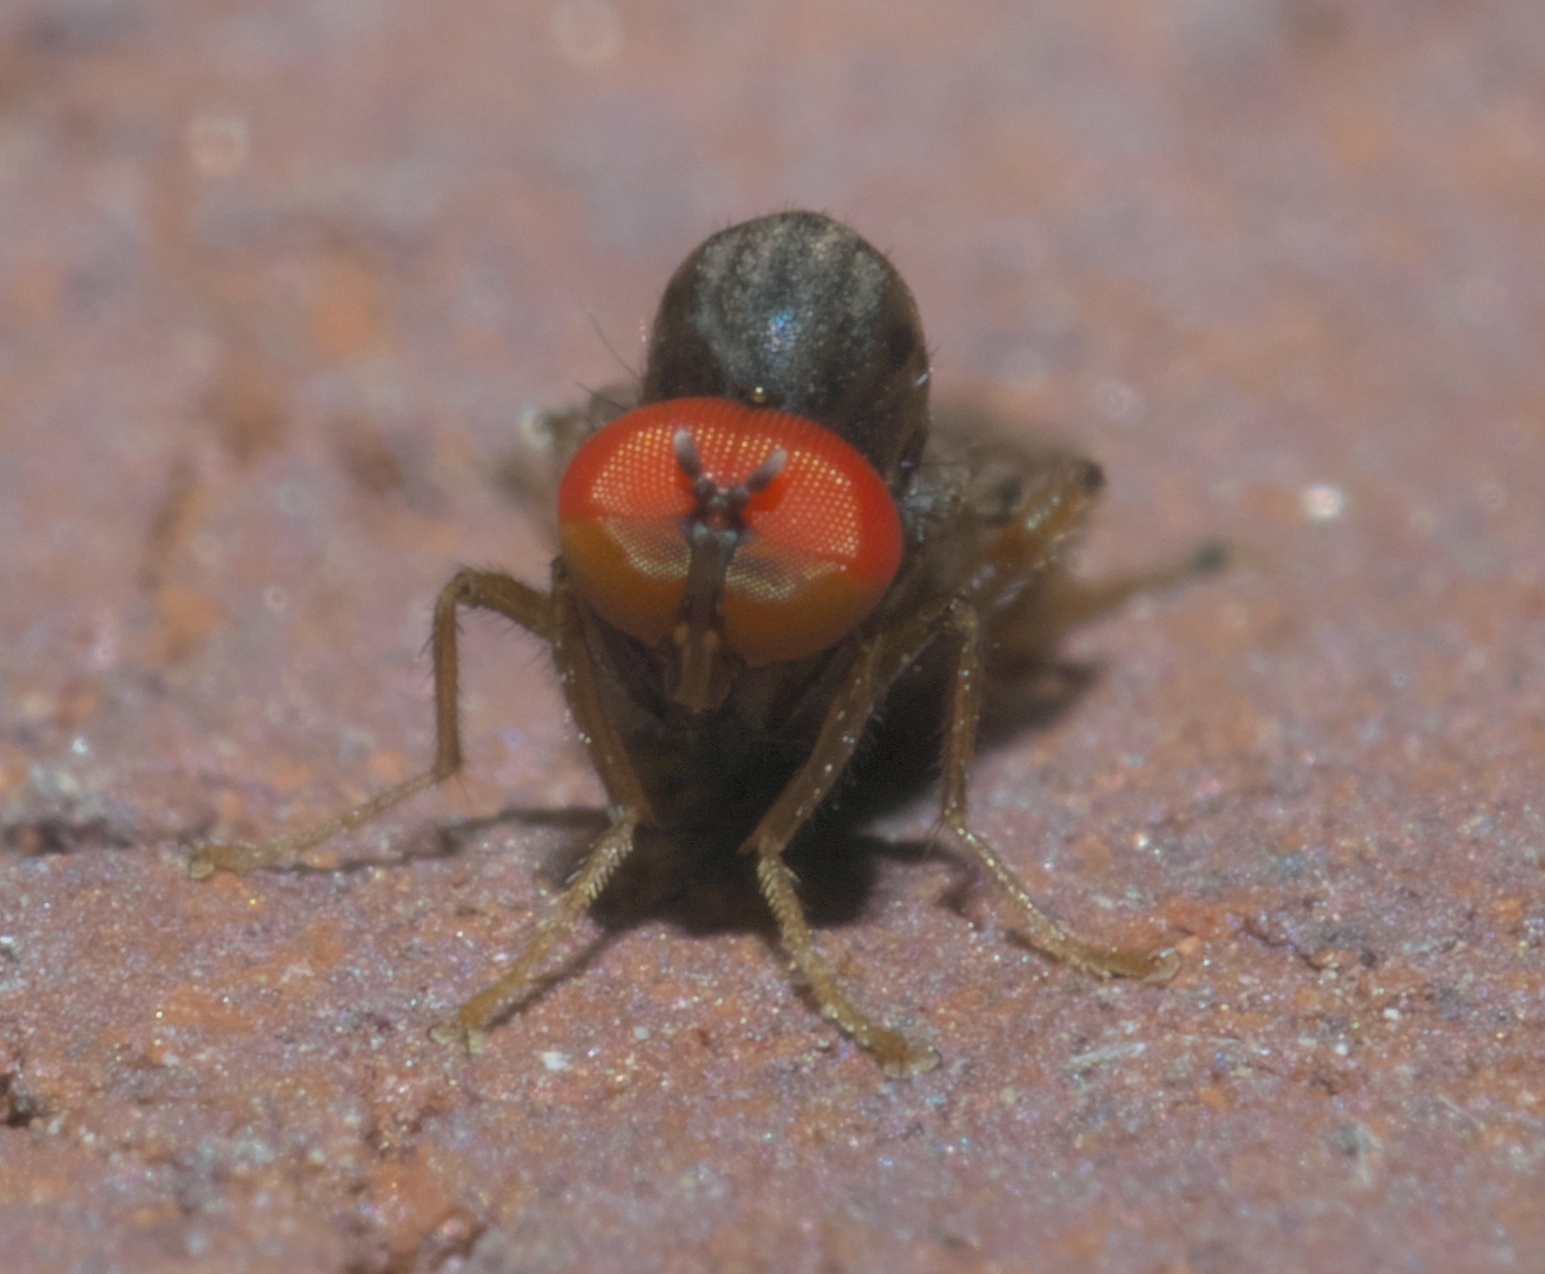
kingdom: Animalia
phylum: Arthropoda
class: Insecta
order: Diptera
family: Hybotidae
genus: Syneches
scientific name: Syneches simplex
